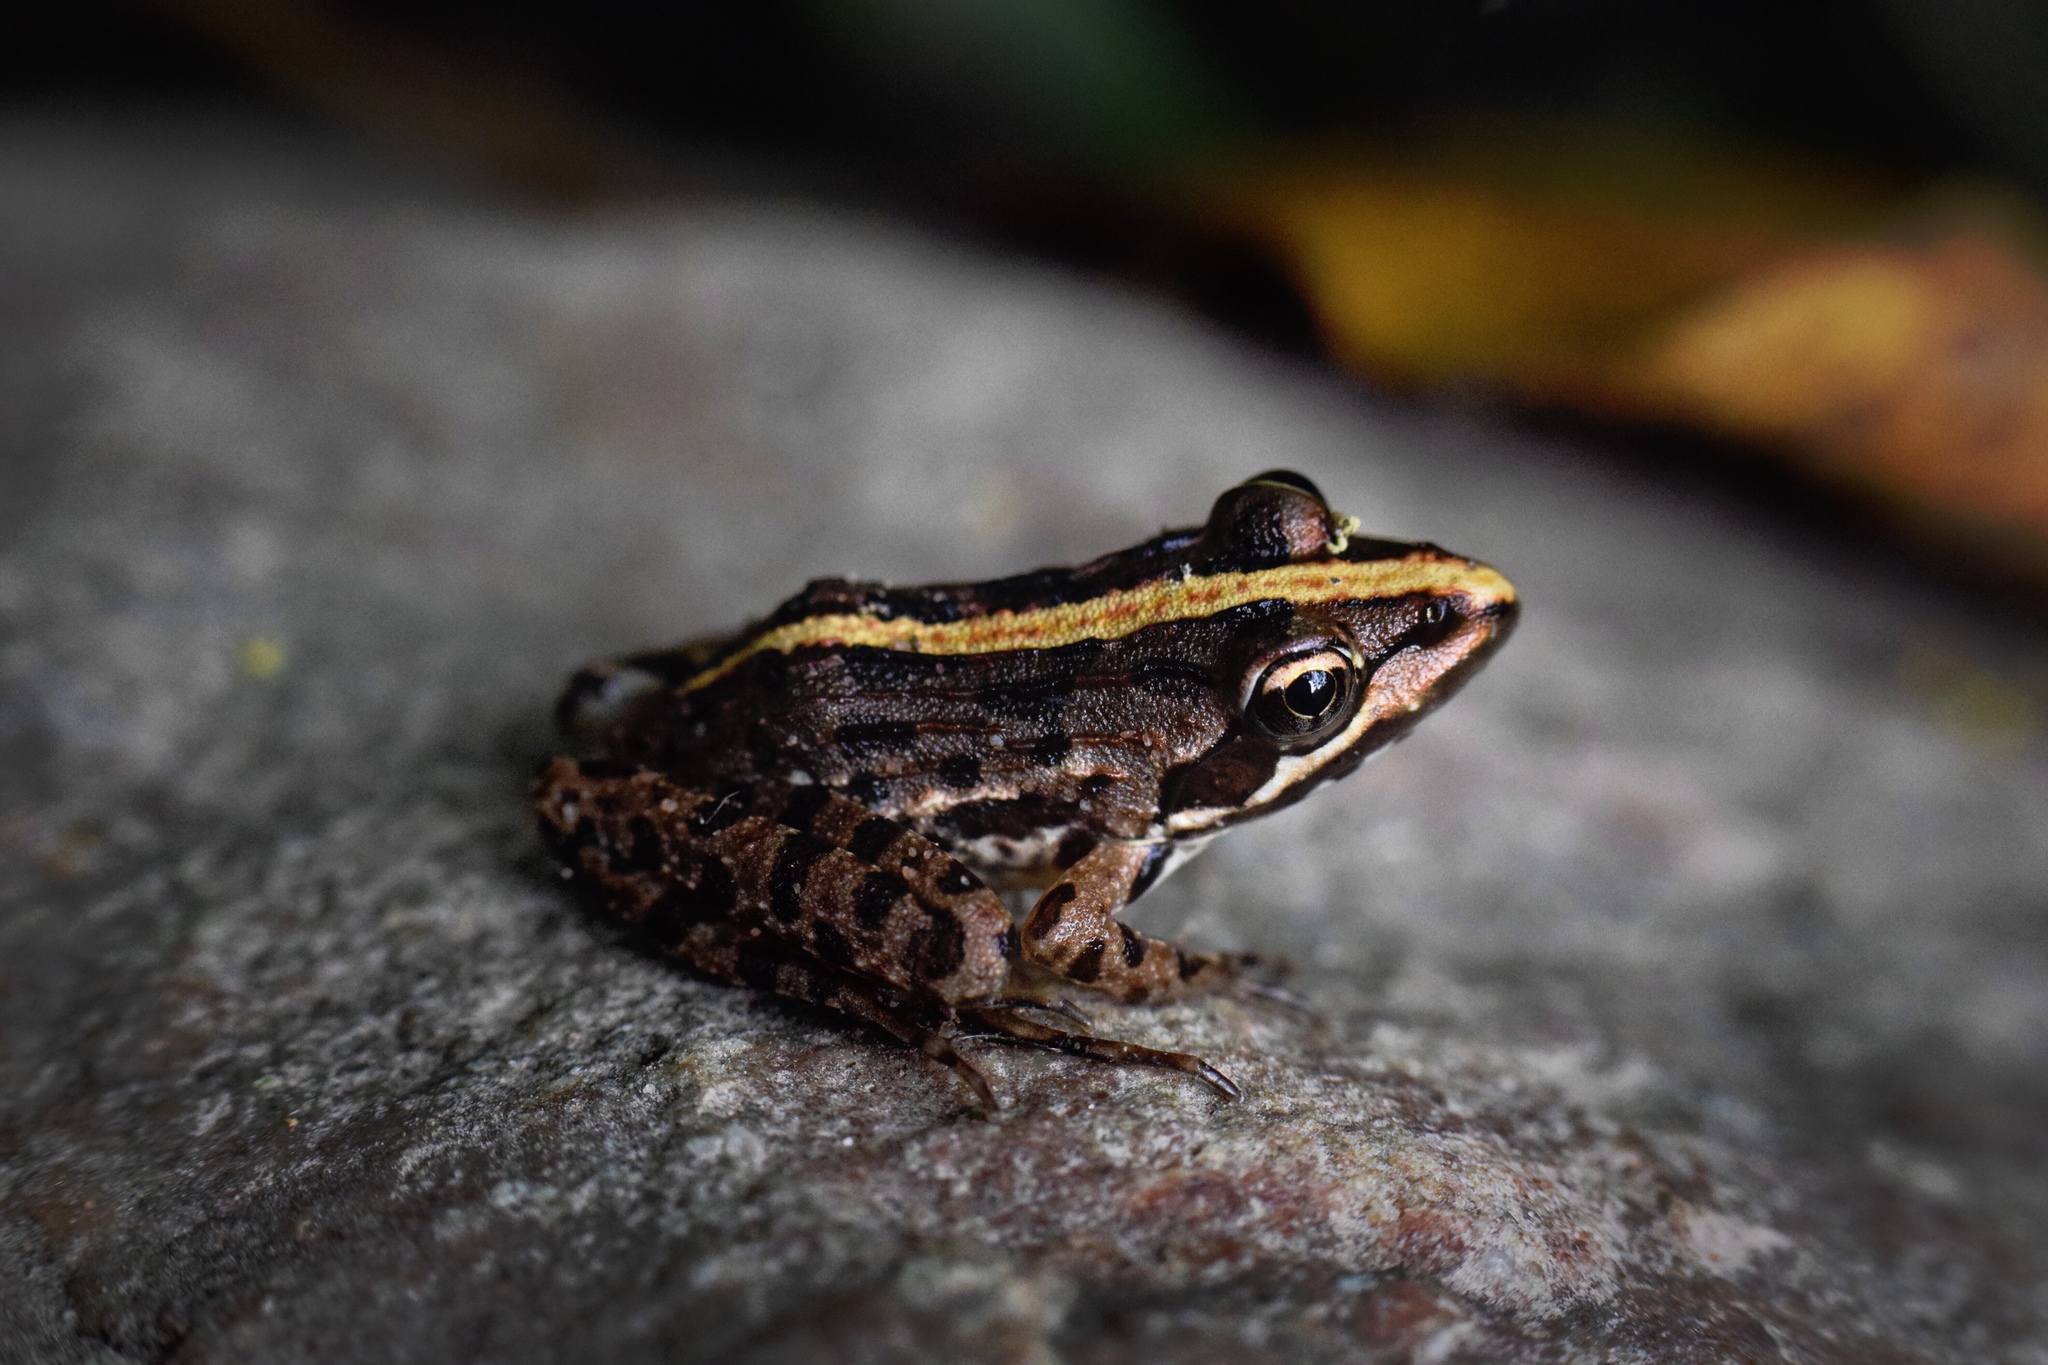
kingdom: Animalia
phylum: Chordata
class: Amphibia
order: Anura
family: Pyxicephalidae
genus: Amietia
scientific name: Amietia delalandii
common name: Delalande's river frog
